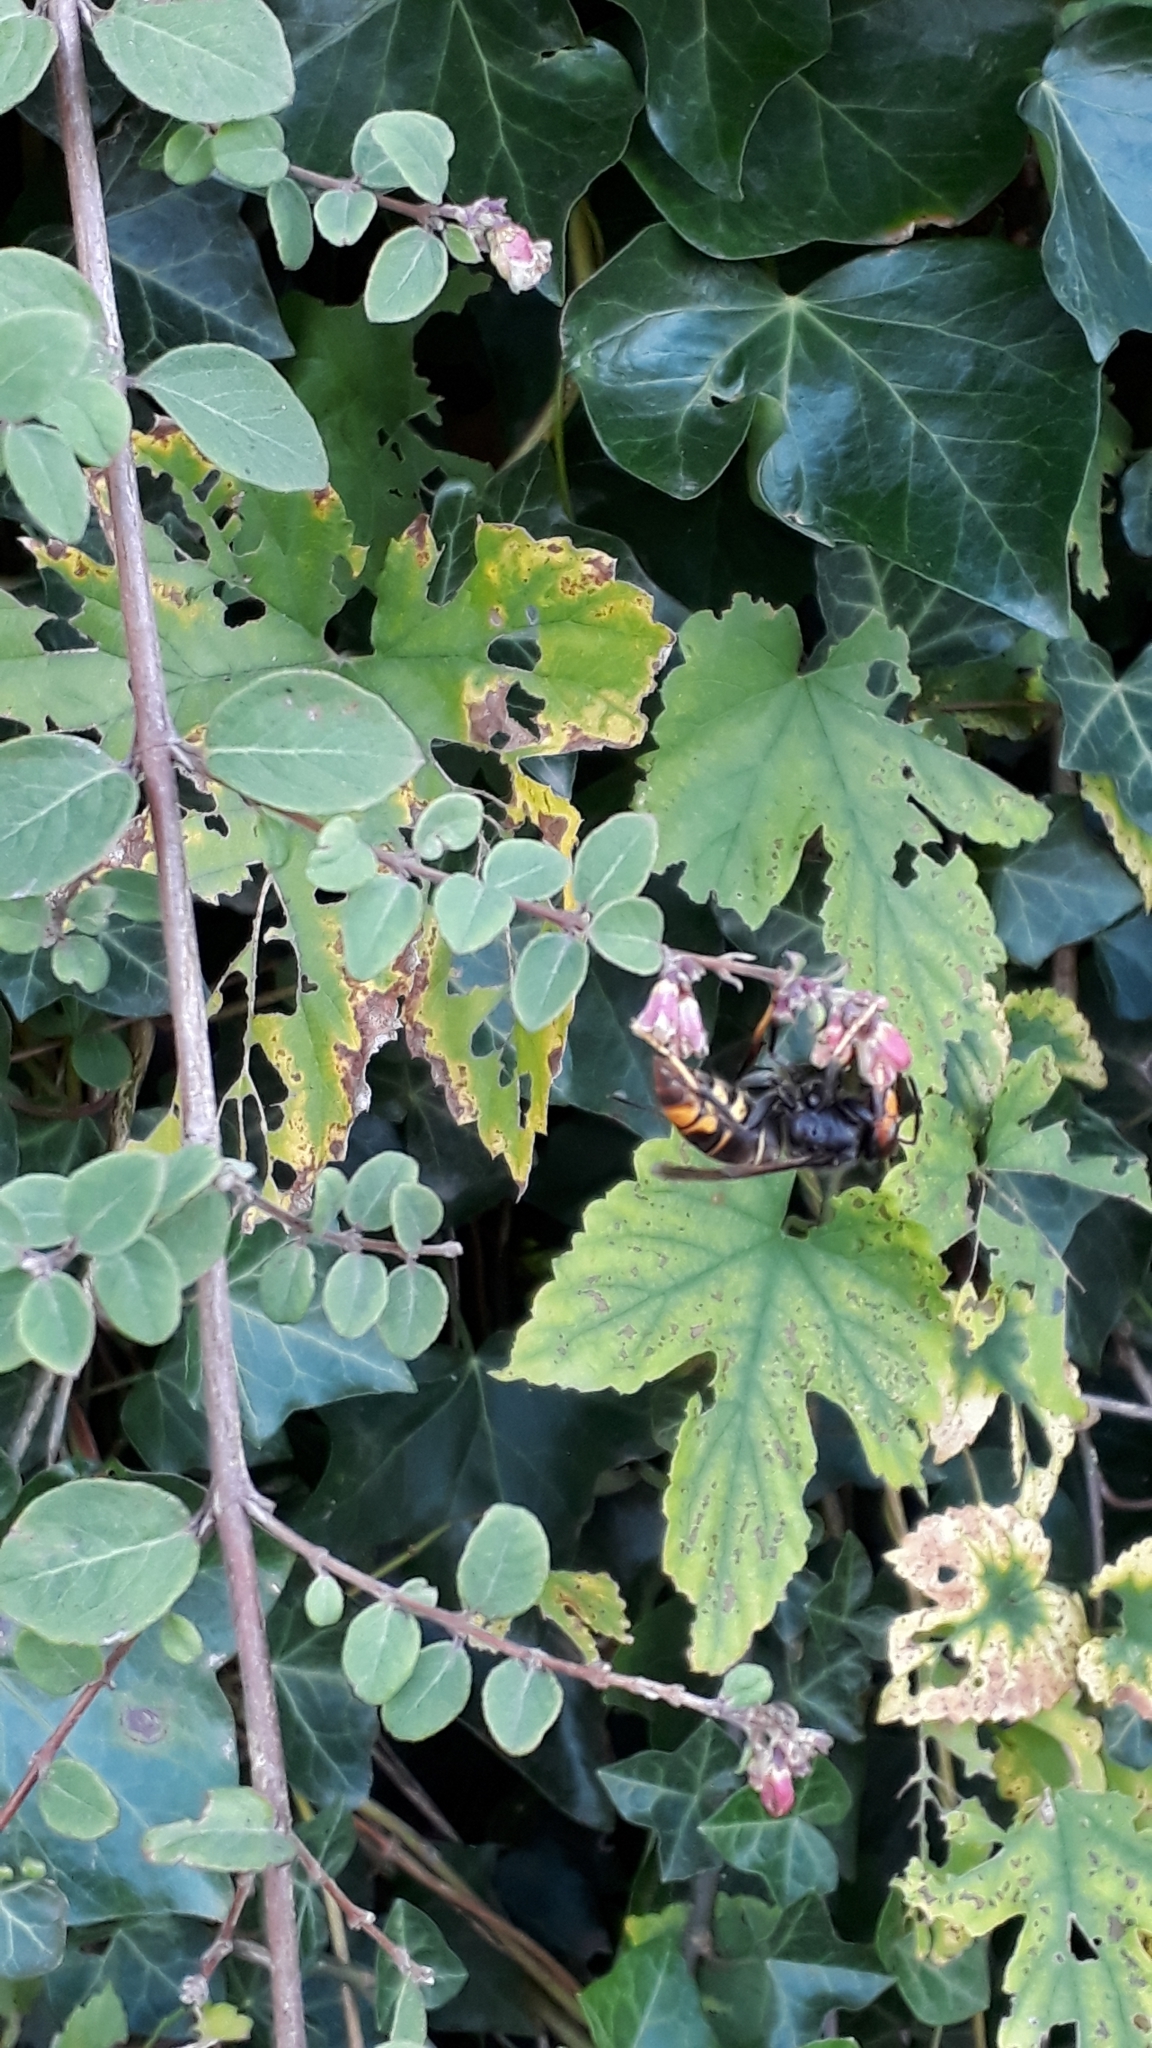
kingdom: Animalia
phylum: Arthropoda
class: Insecta
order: Hymenoptera
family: Vespidae
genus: Vespa
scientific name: Vespa velutina
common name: Asian hornet
